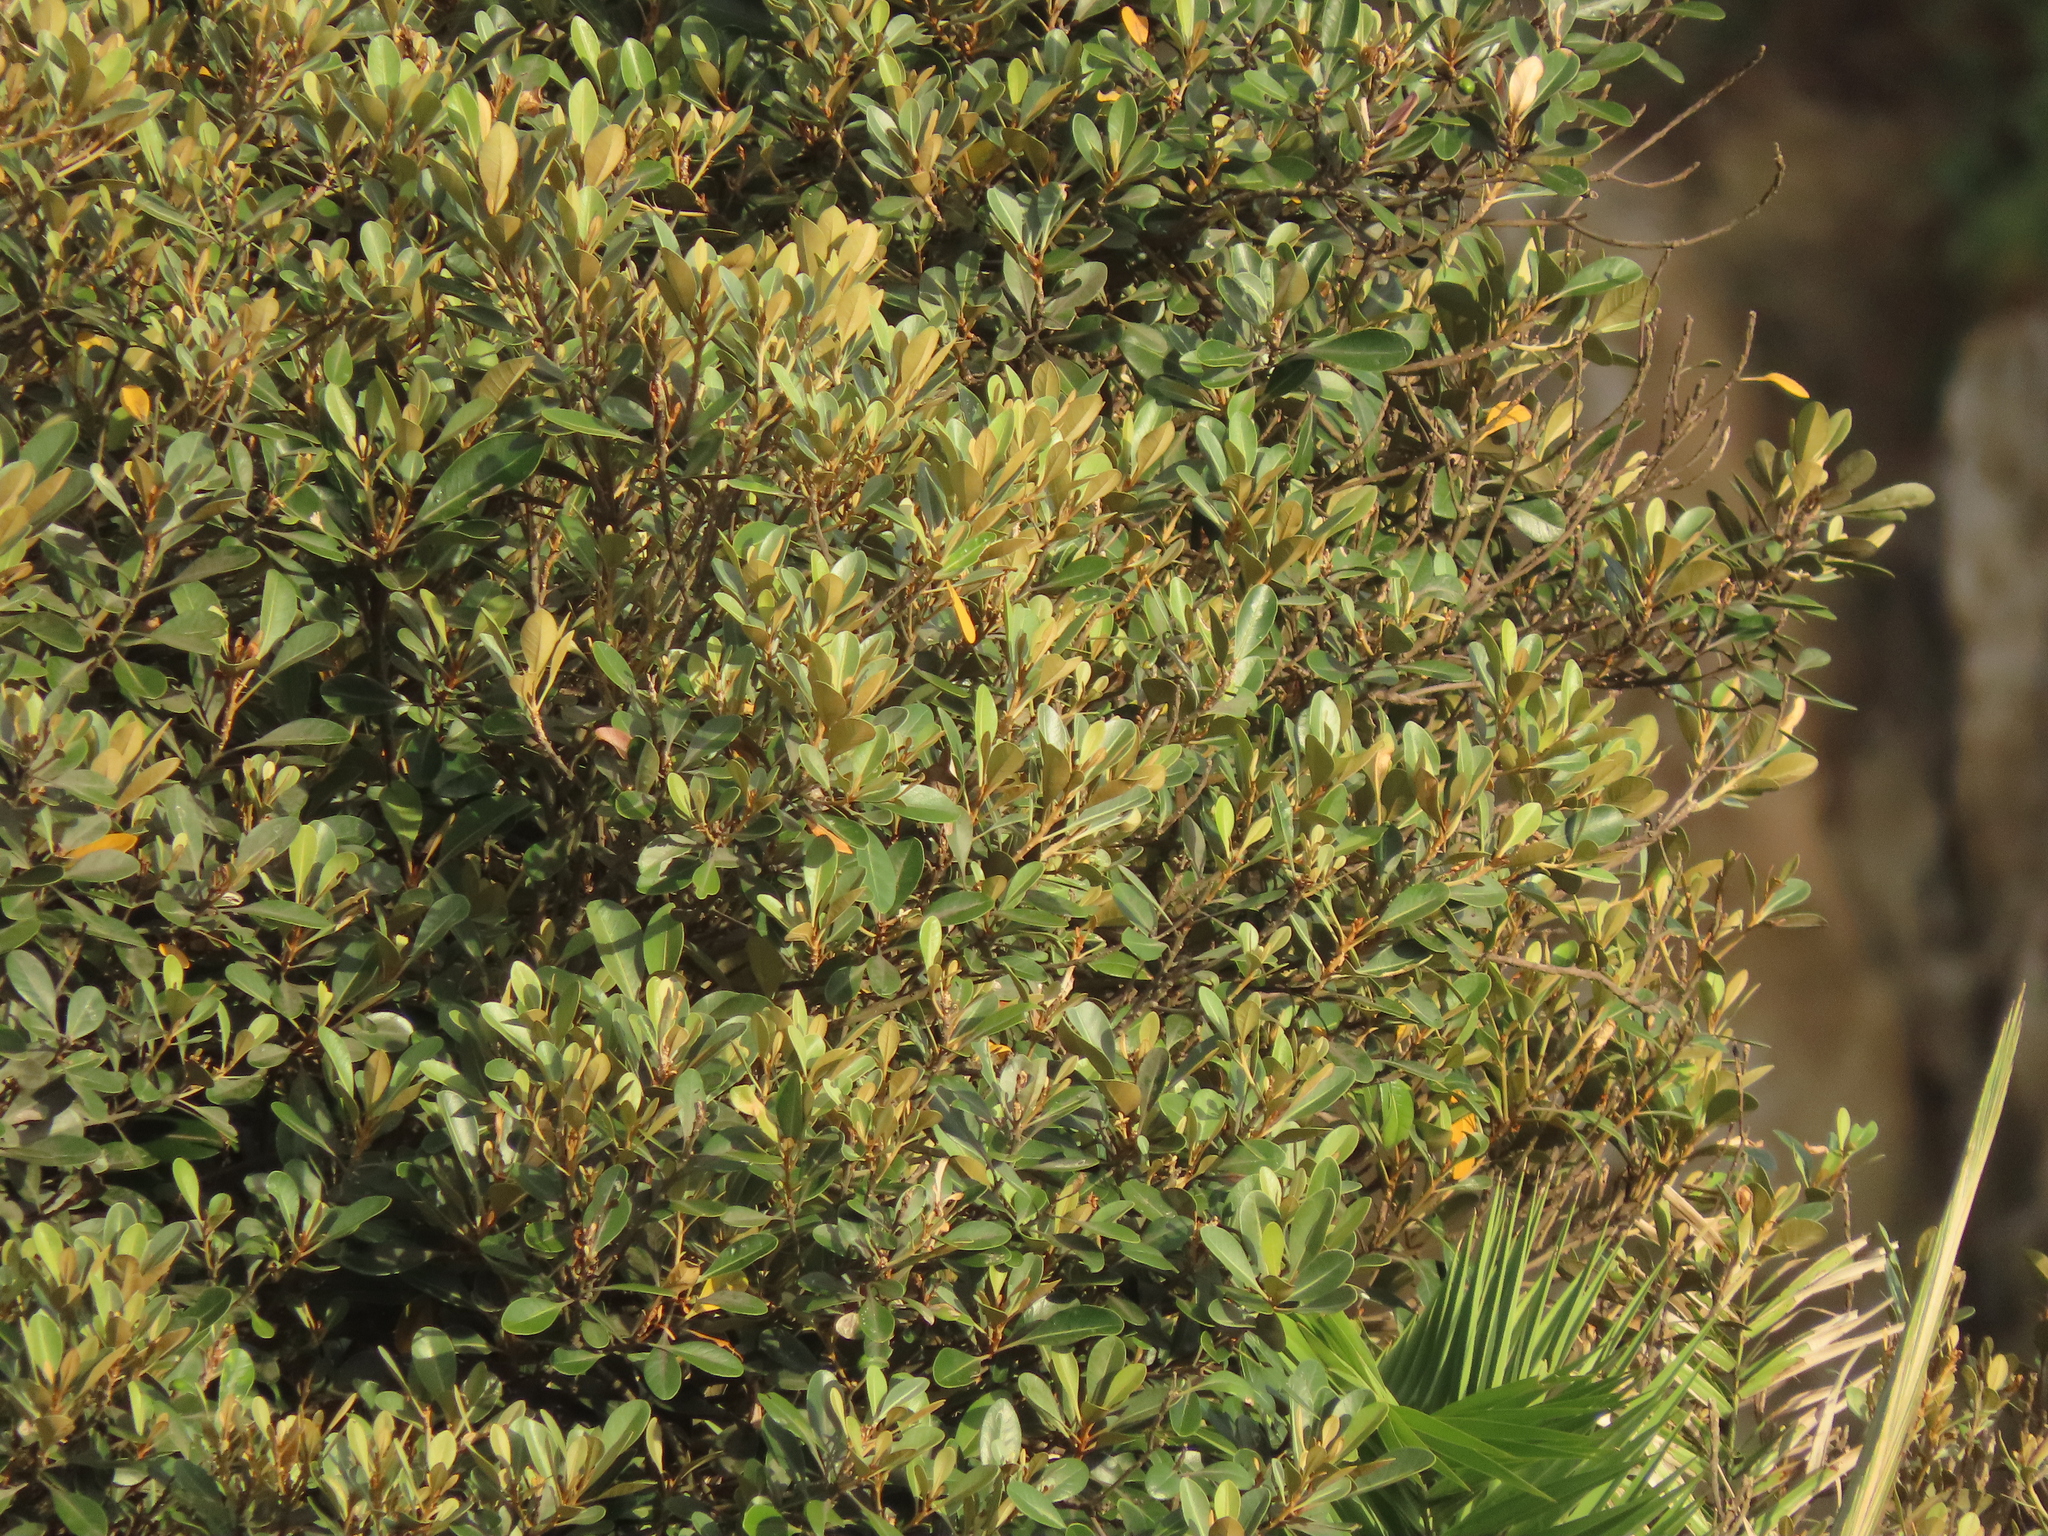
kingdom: Plantae
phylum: Tracheophyta
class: Magnoliopsida
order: Ericales
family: Sapotaceae
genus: Planchonella
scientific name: Planchonella obovata
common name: Black-ash
